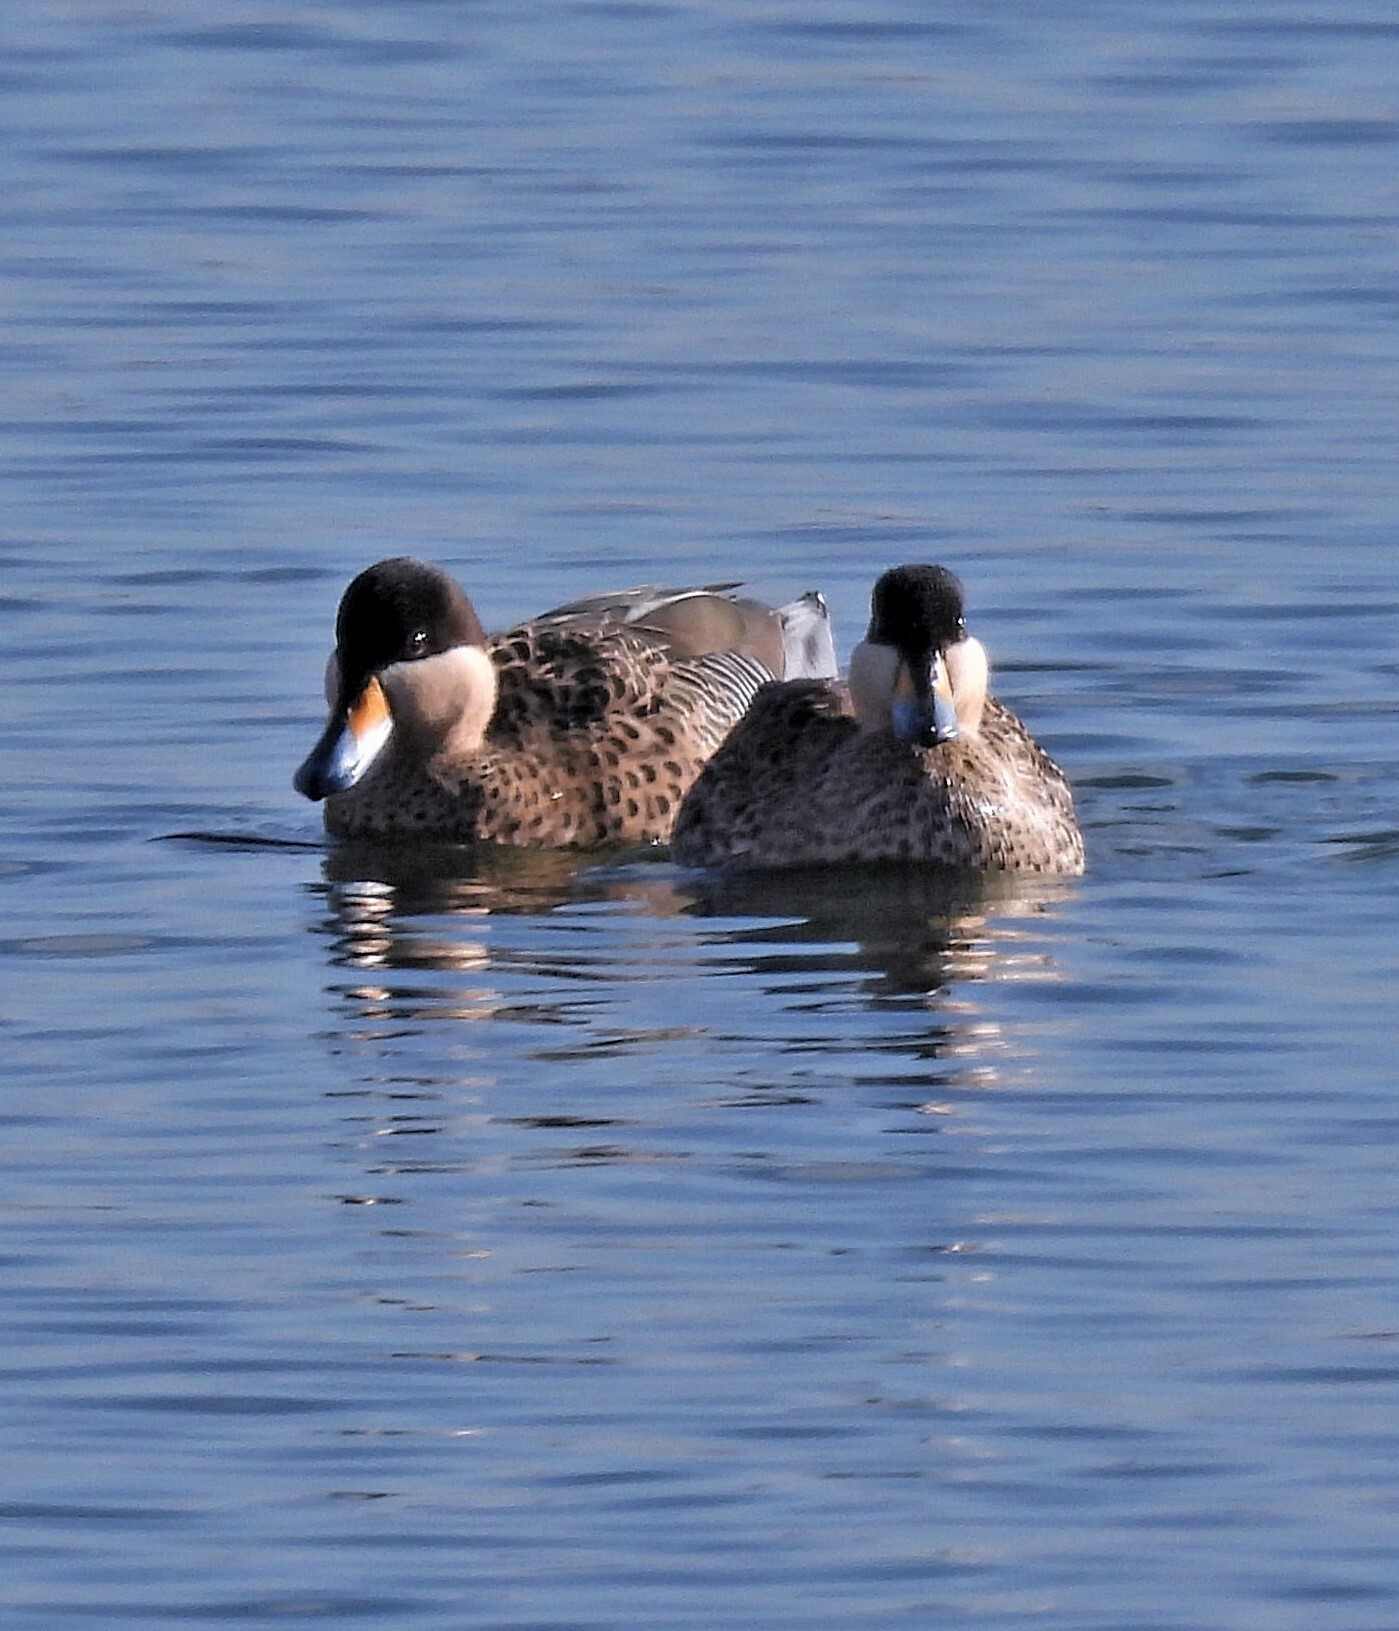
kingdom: Animalia
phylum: Chordata
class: Aves
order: Anseriformes
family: Anatidae
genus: Spatula
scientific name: Spatula versicolor
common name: Silver teal
